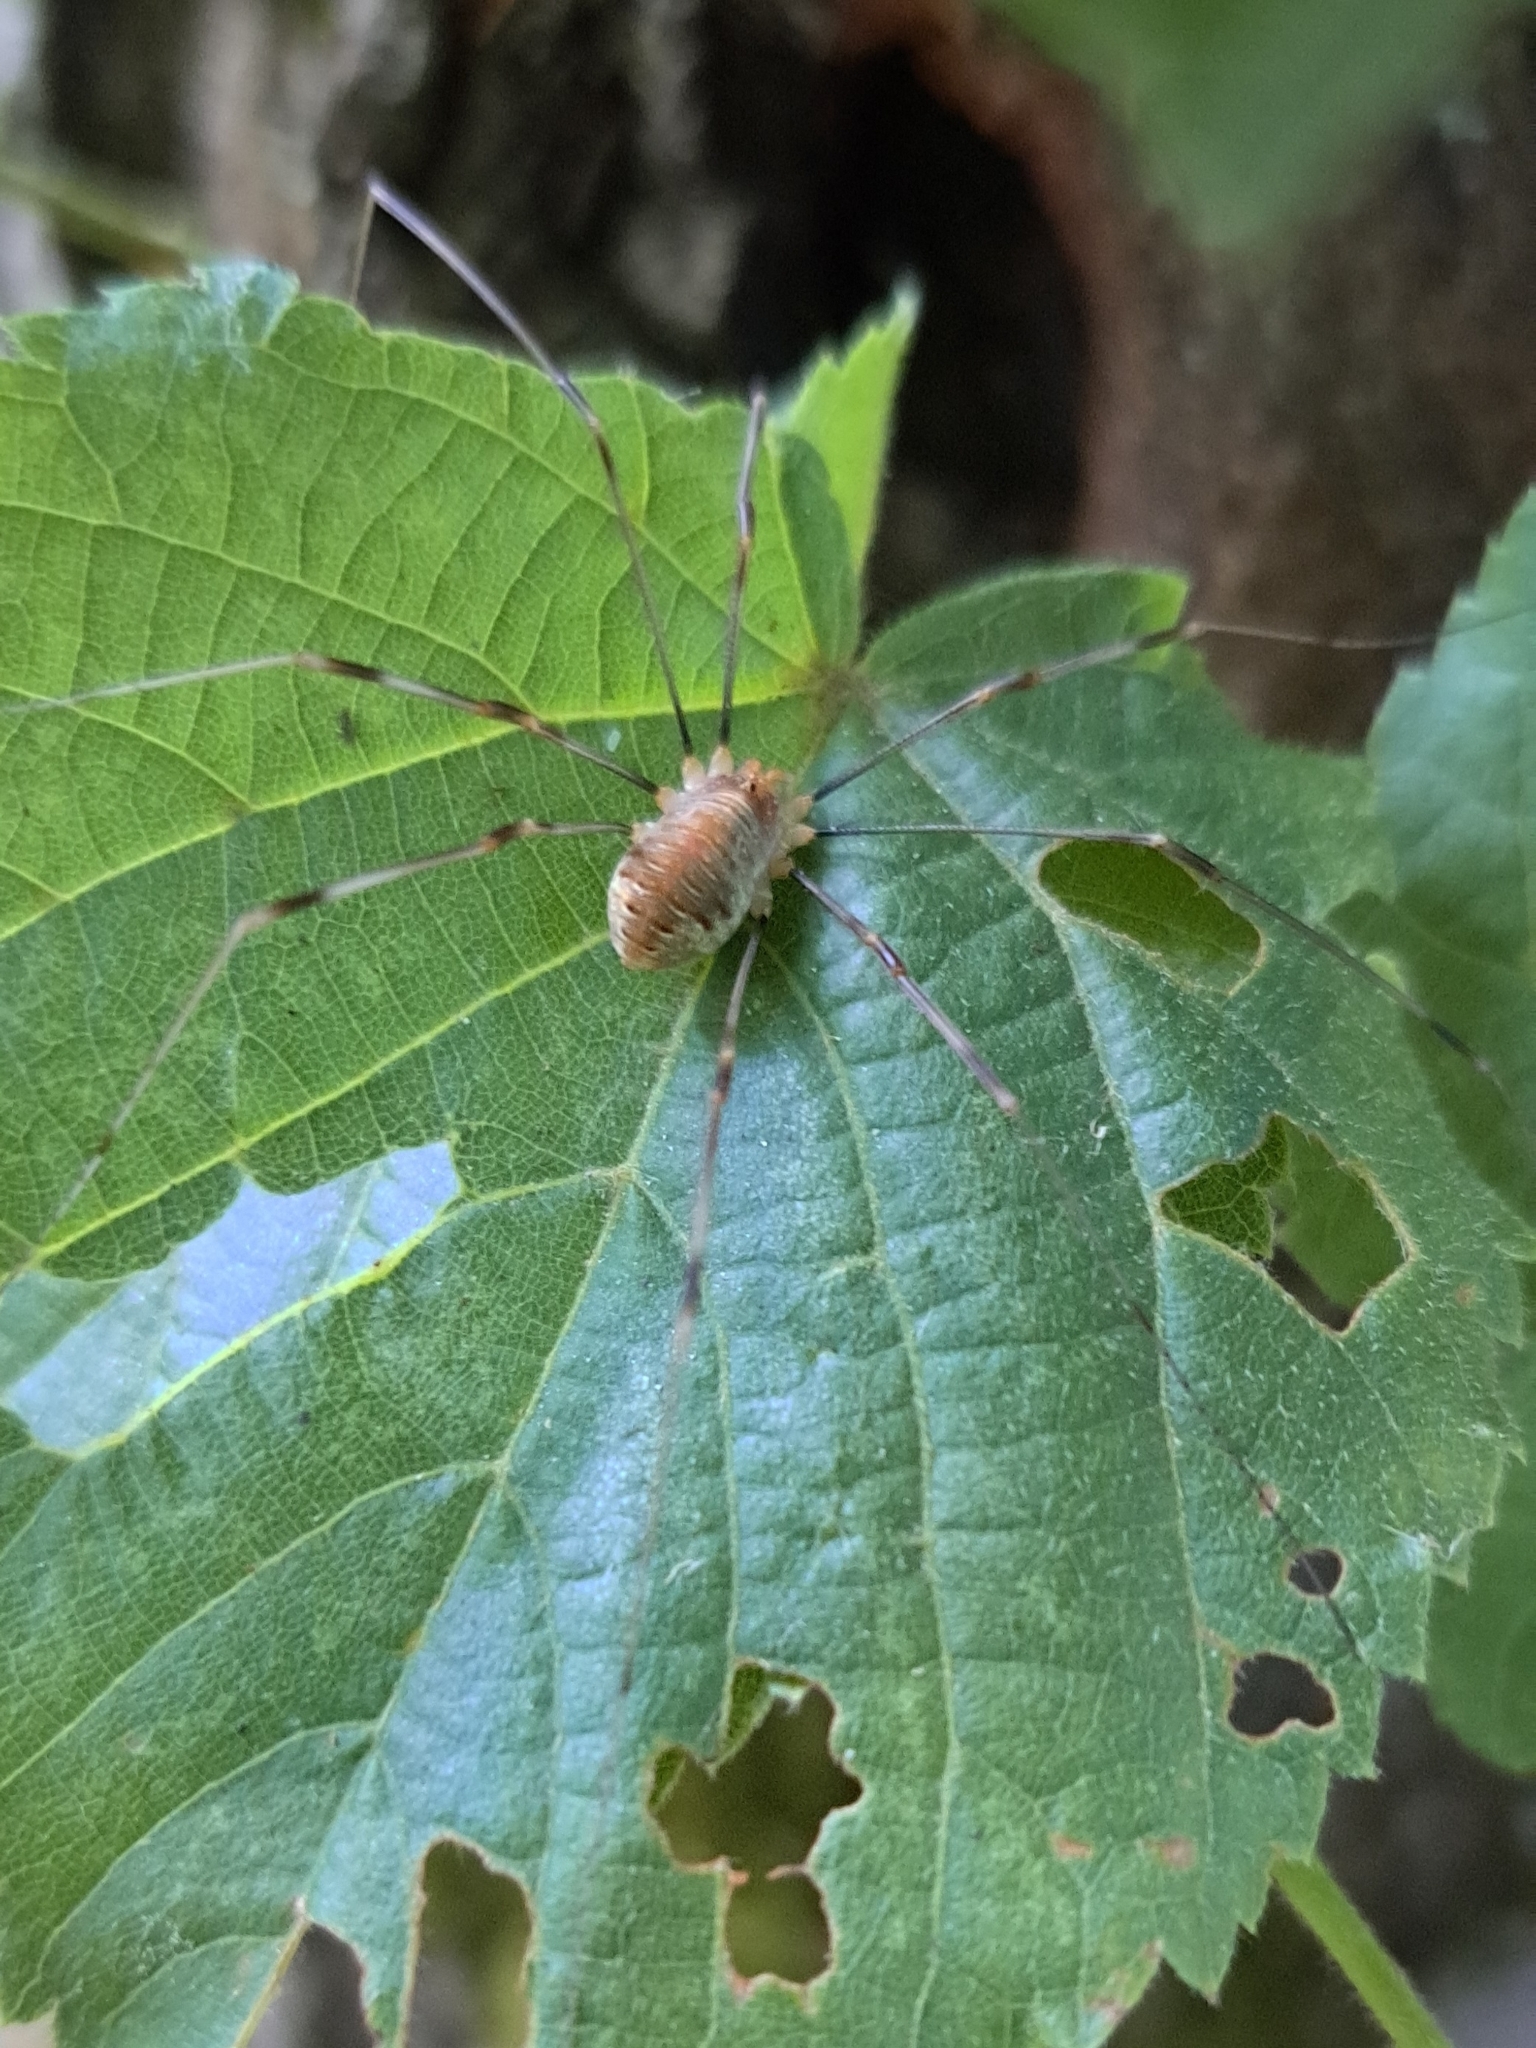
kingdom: Animalia
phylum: Arthropoda
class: Arachnida
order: Opiliones
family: Phalangiidae
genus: Opilio
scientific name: Opilio canestrinii
